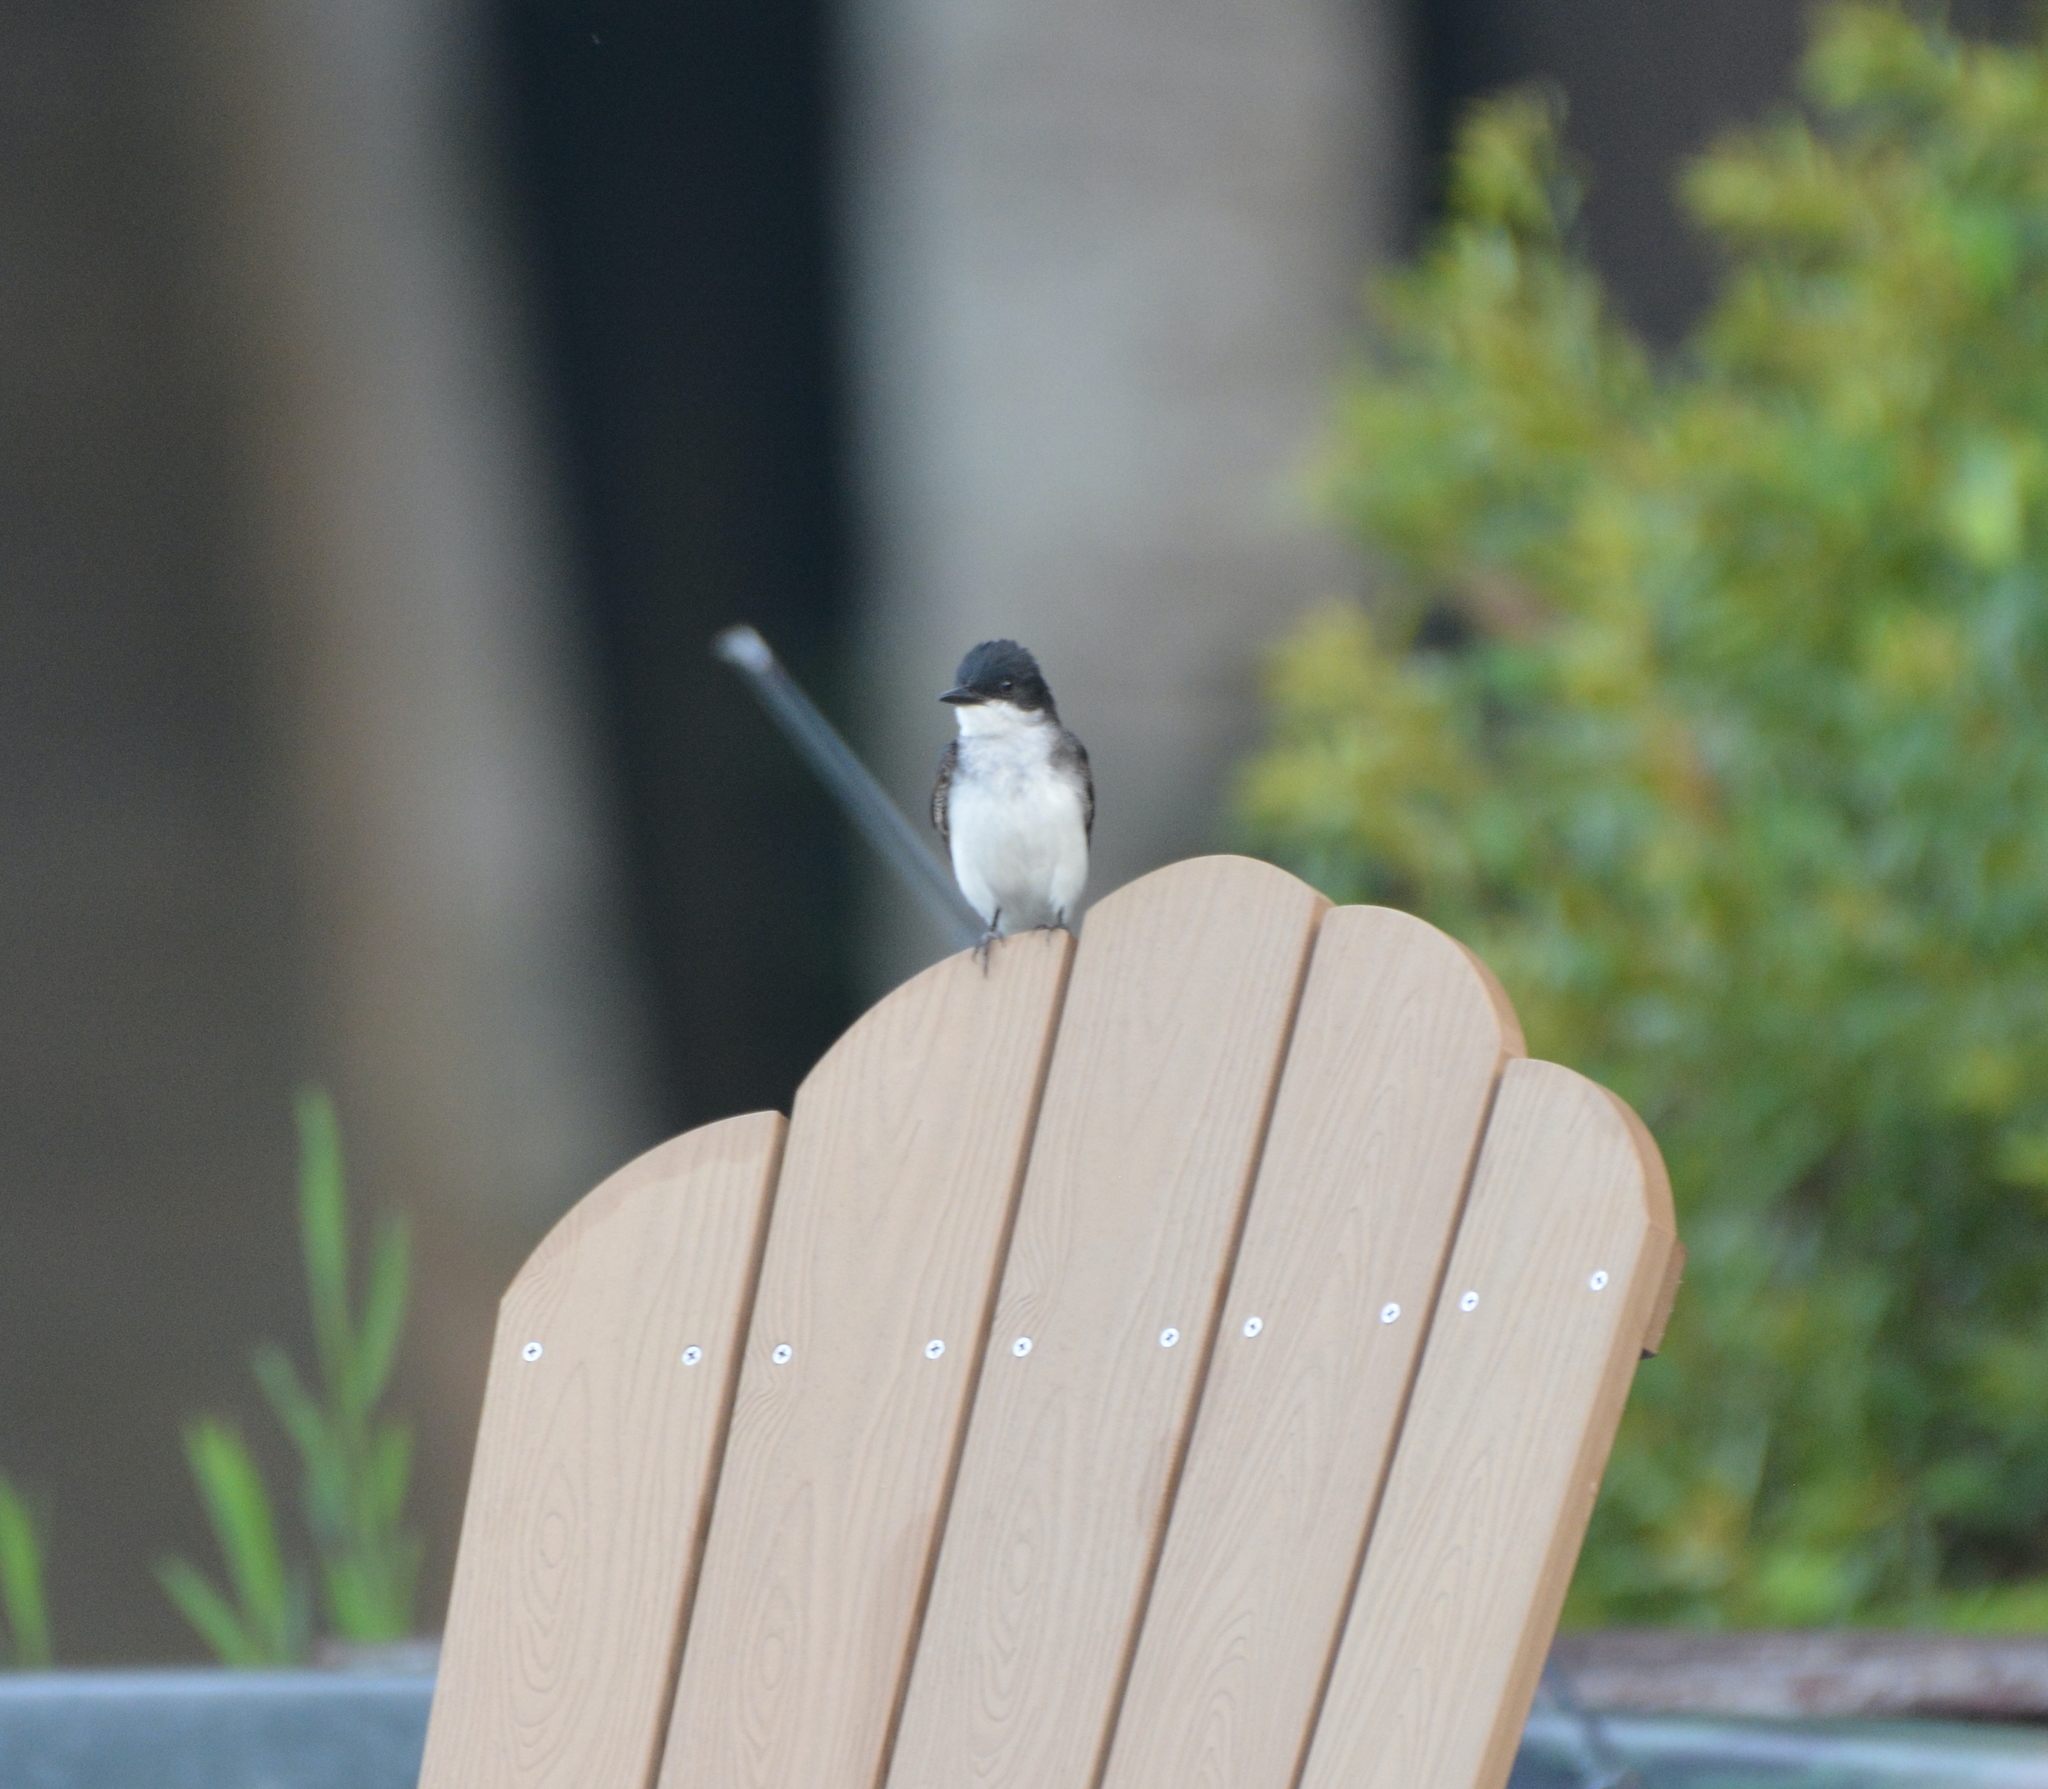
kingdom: Animalia
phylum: Chordata
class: Aves
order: Passeriformes
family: Tyrannidae
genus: Tyrannus
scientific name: Tyrannus tyrannus
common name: Eastern kingbird
